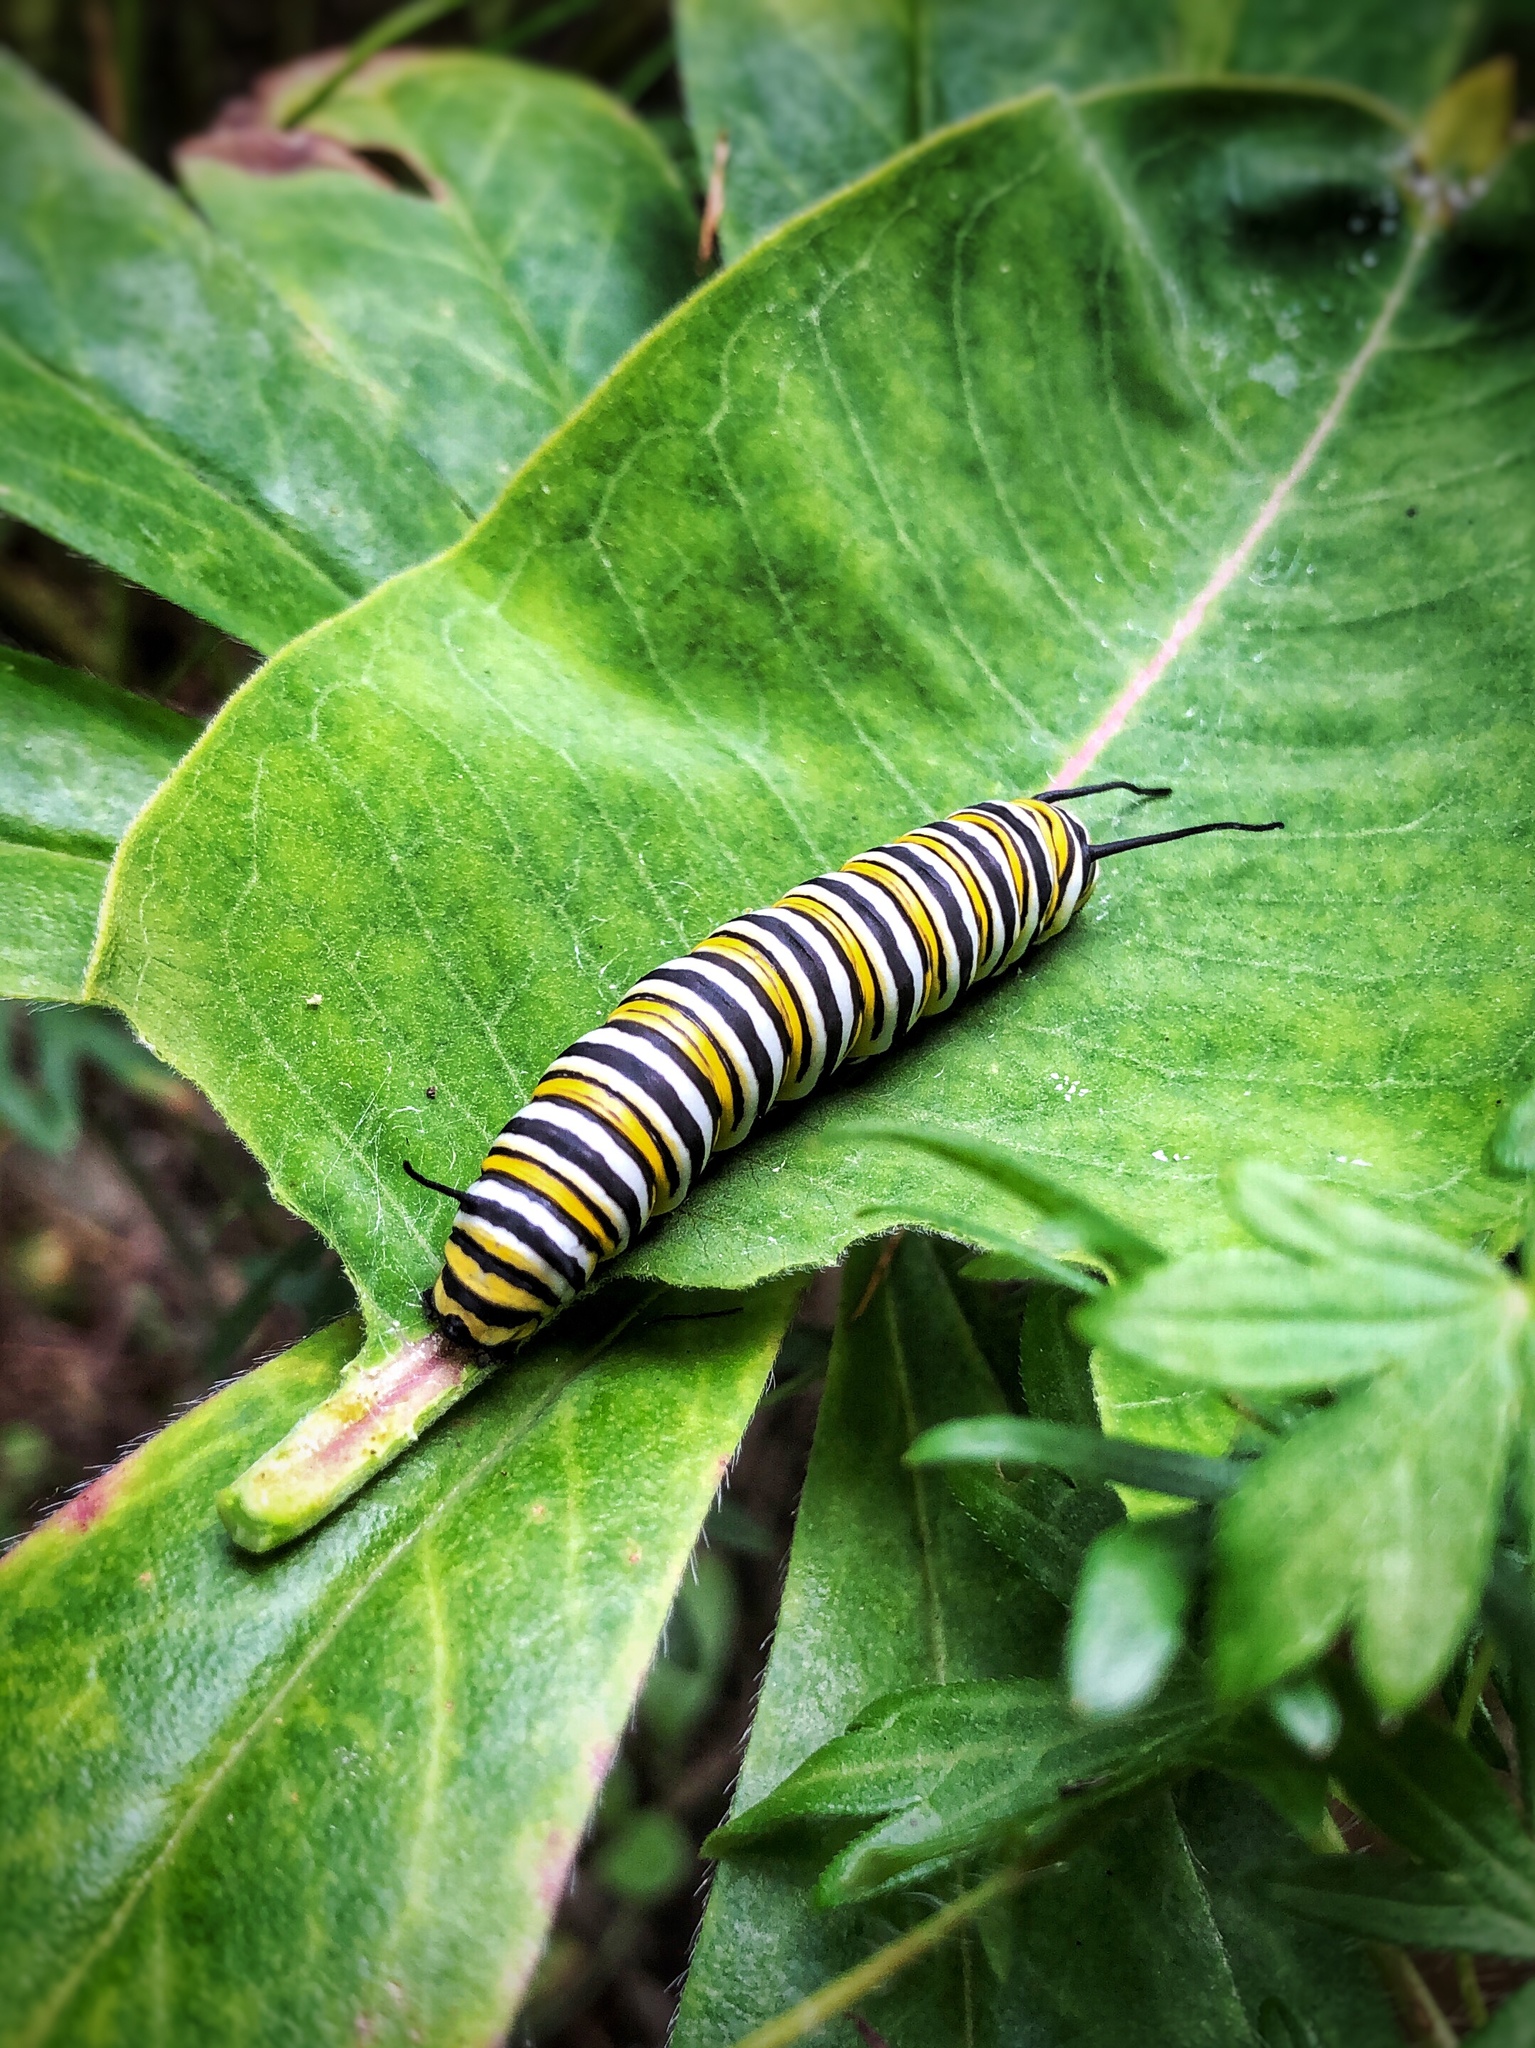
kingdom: Animalia
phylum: Arthropoda
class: Insecta
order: Lepidoptera
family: Nymphalidae
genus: Danaus
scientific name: Danaus plexippus
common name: Monarch
